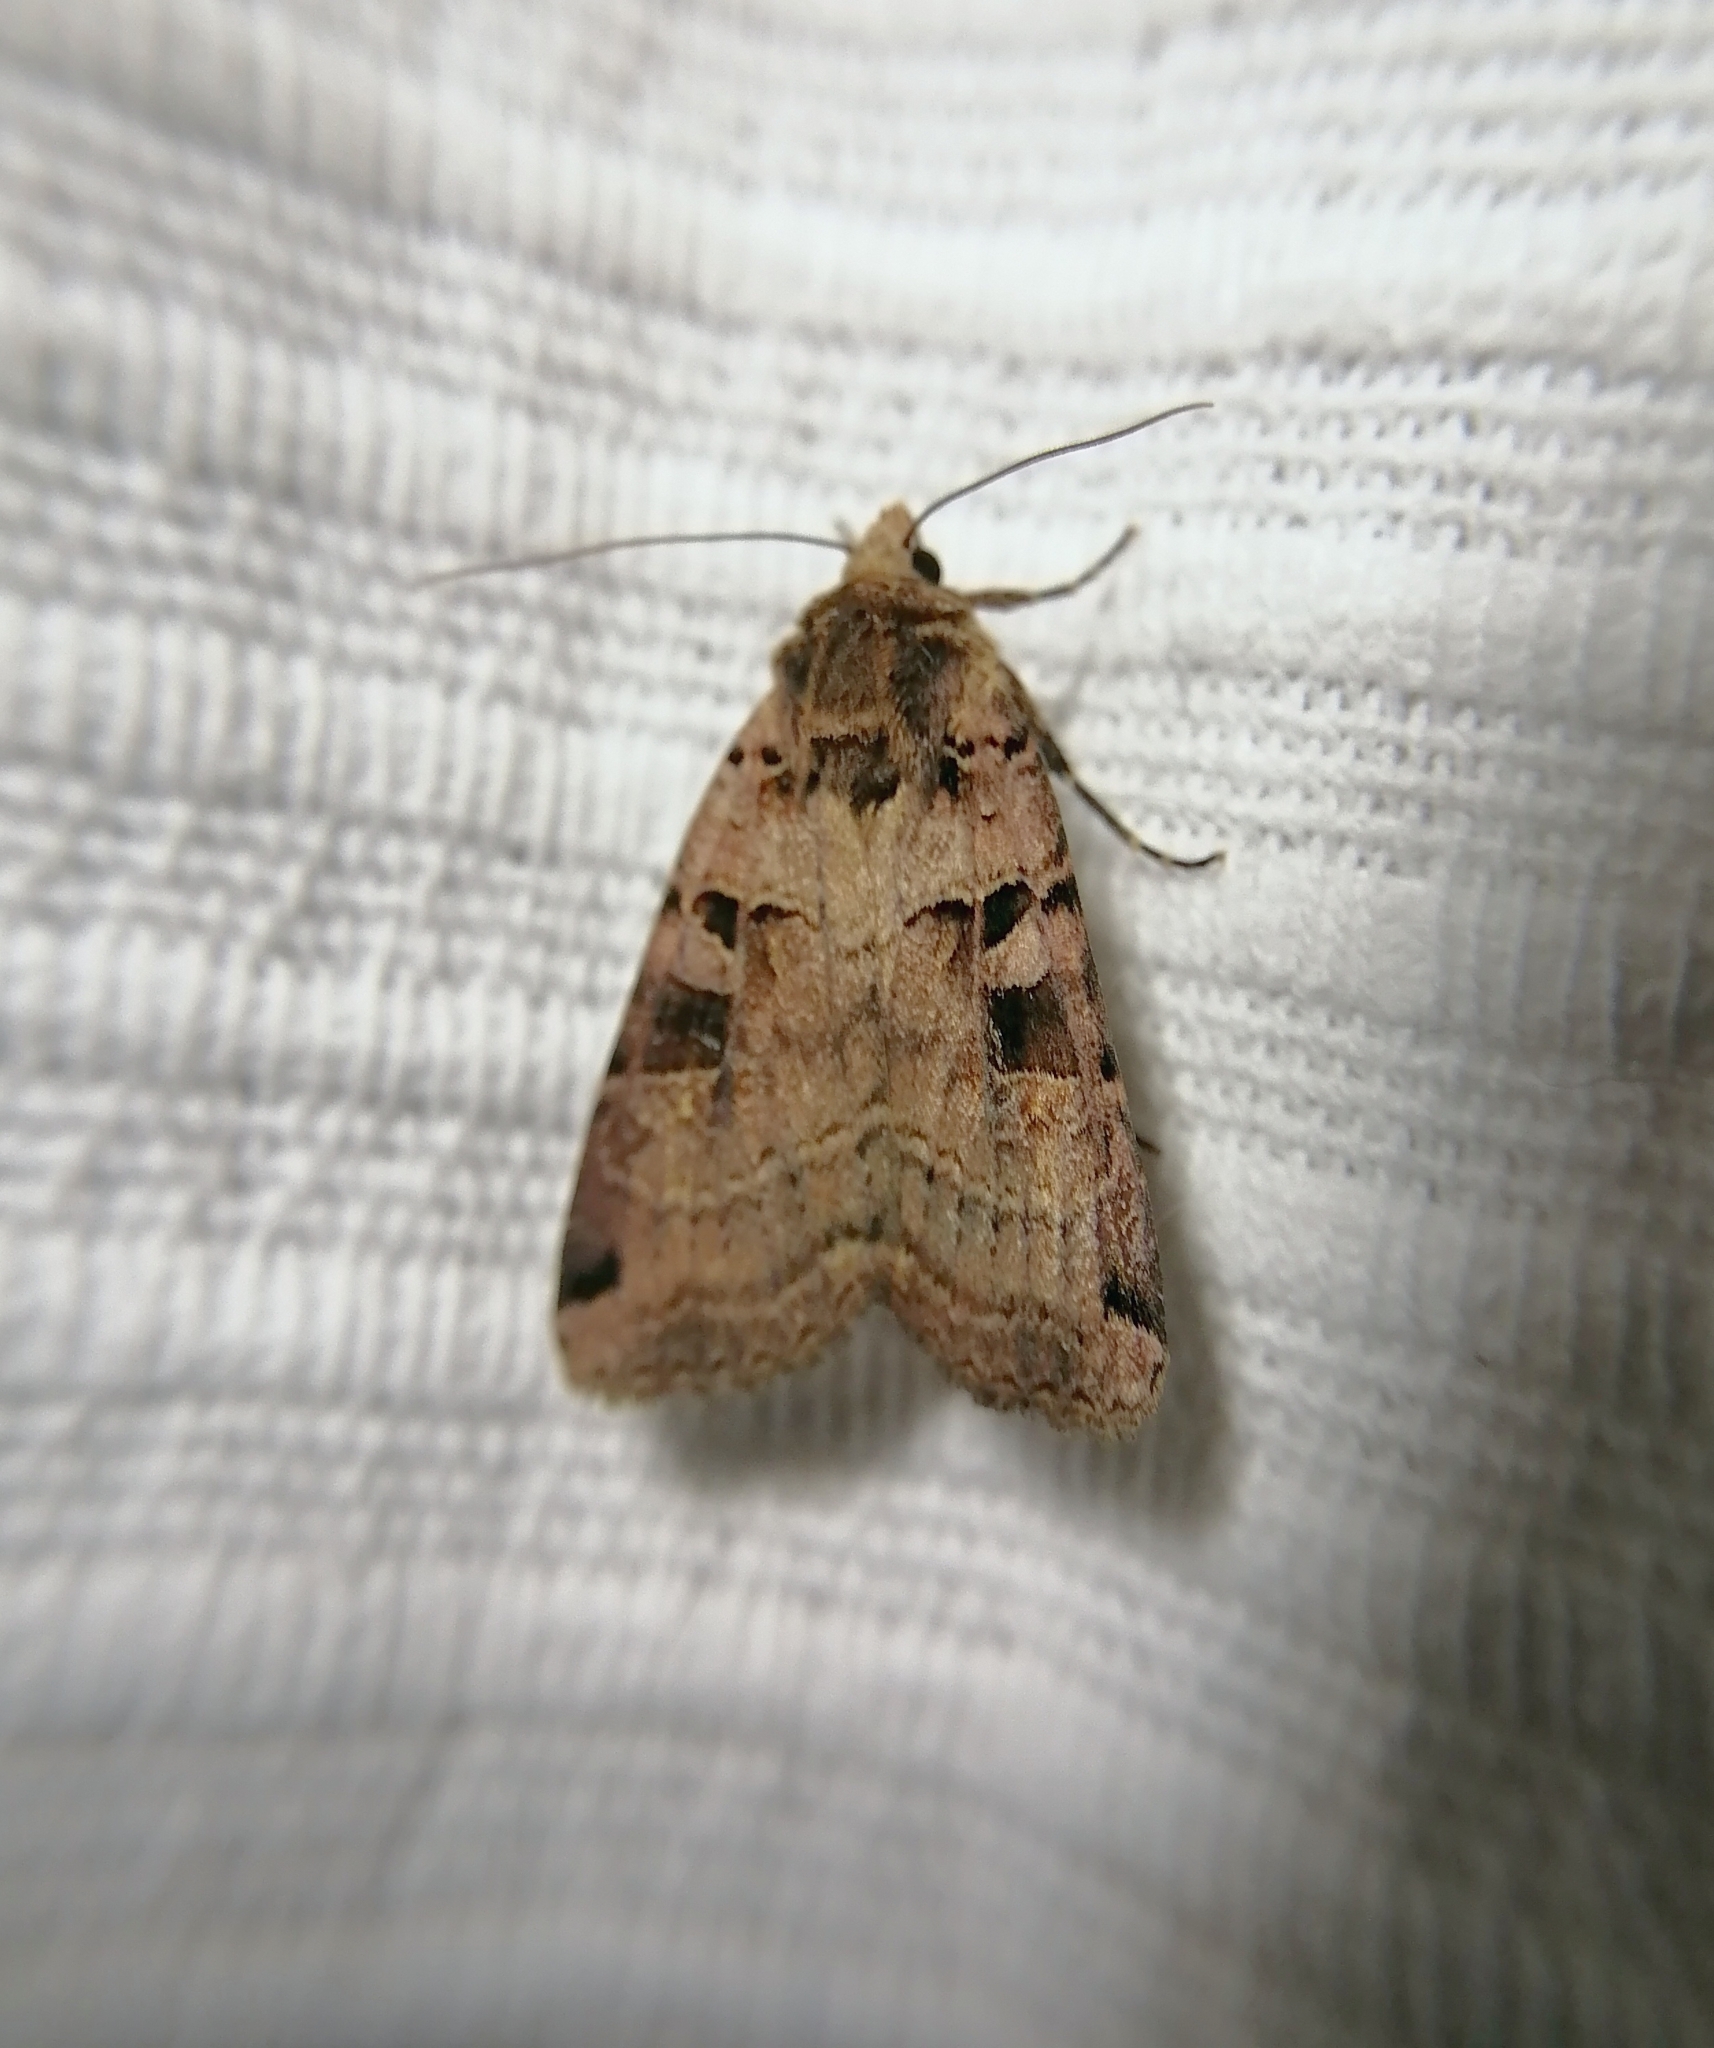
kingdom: Animalia
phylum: Arthropoda
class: Insecta
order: Lepidoptera
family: Noctuidae
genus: Xestia
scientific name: Xestia triangulum
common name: Double square-spot
